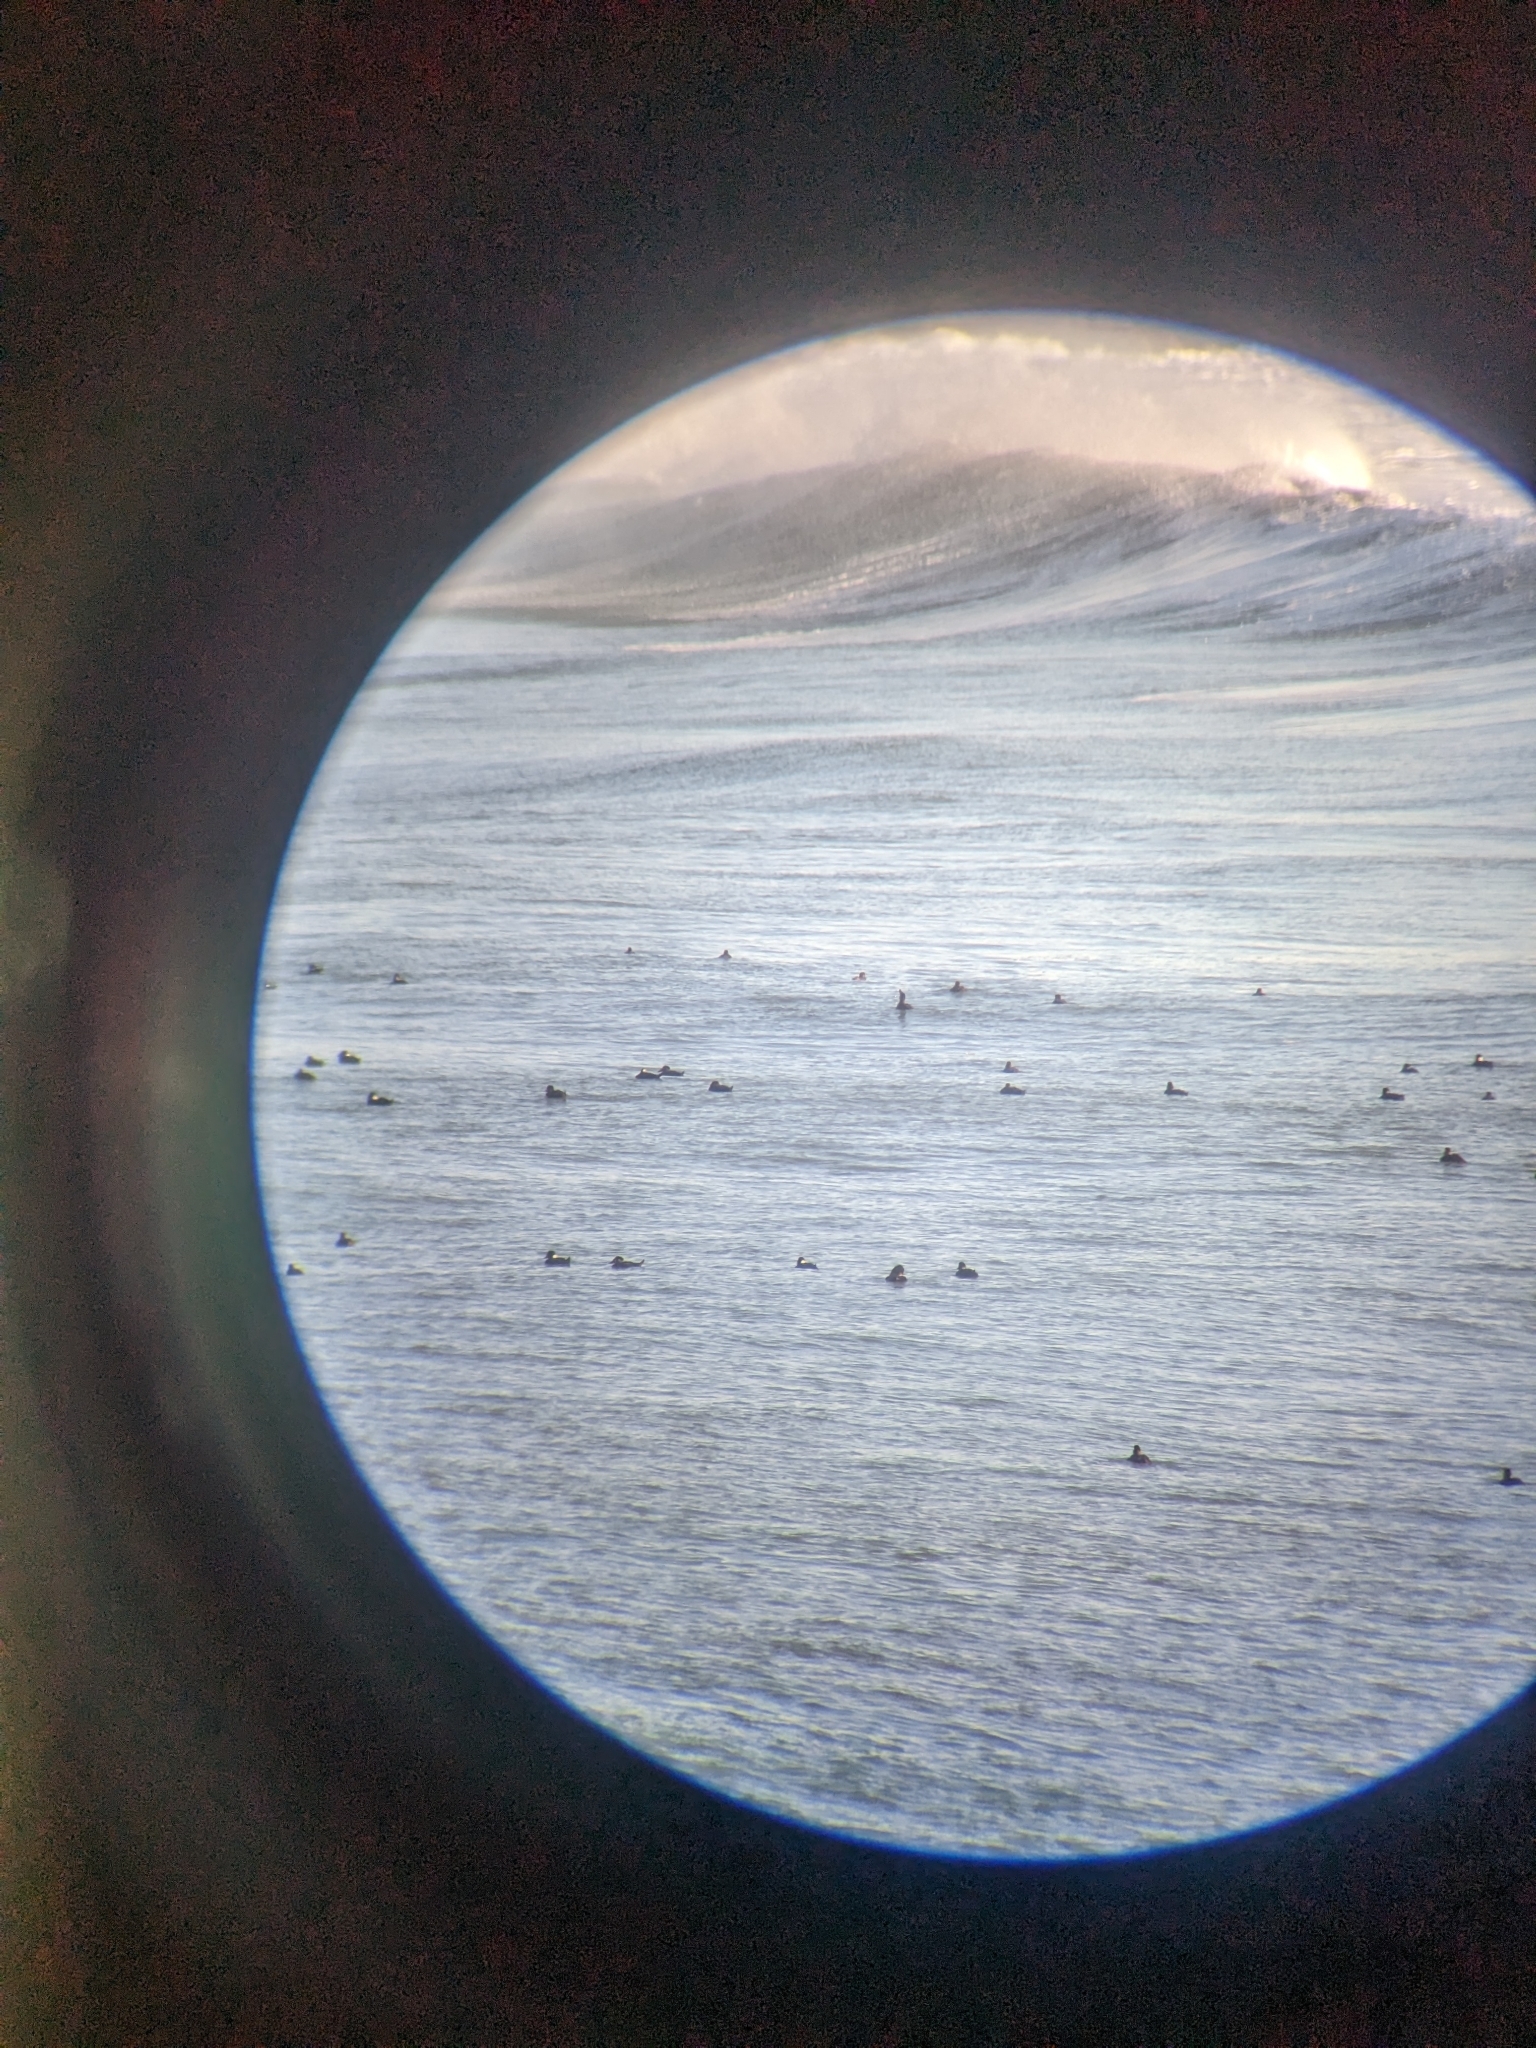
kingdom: Animalia
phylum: Chordata
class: Aves
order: Anseriformes
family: Anatidae
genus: Melanitta
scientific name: Melanitta perspicillata
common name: Surf scoter
